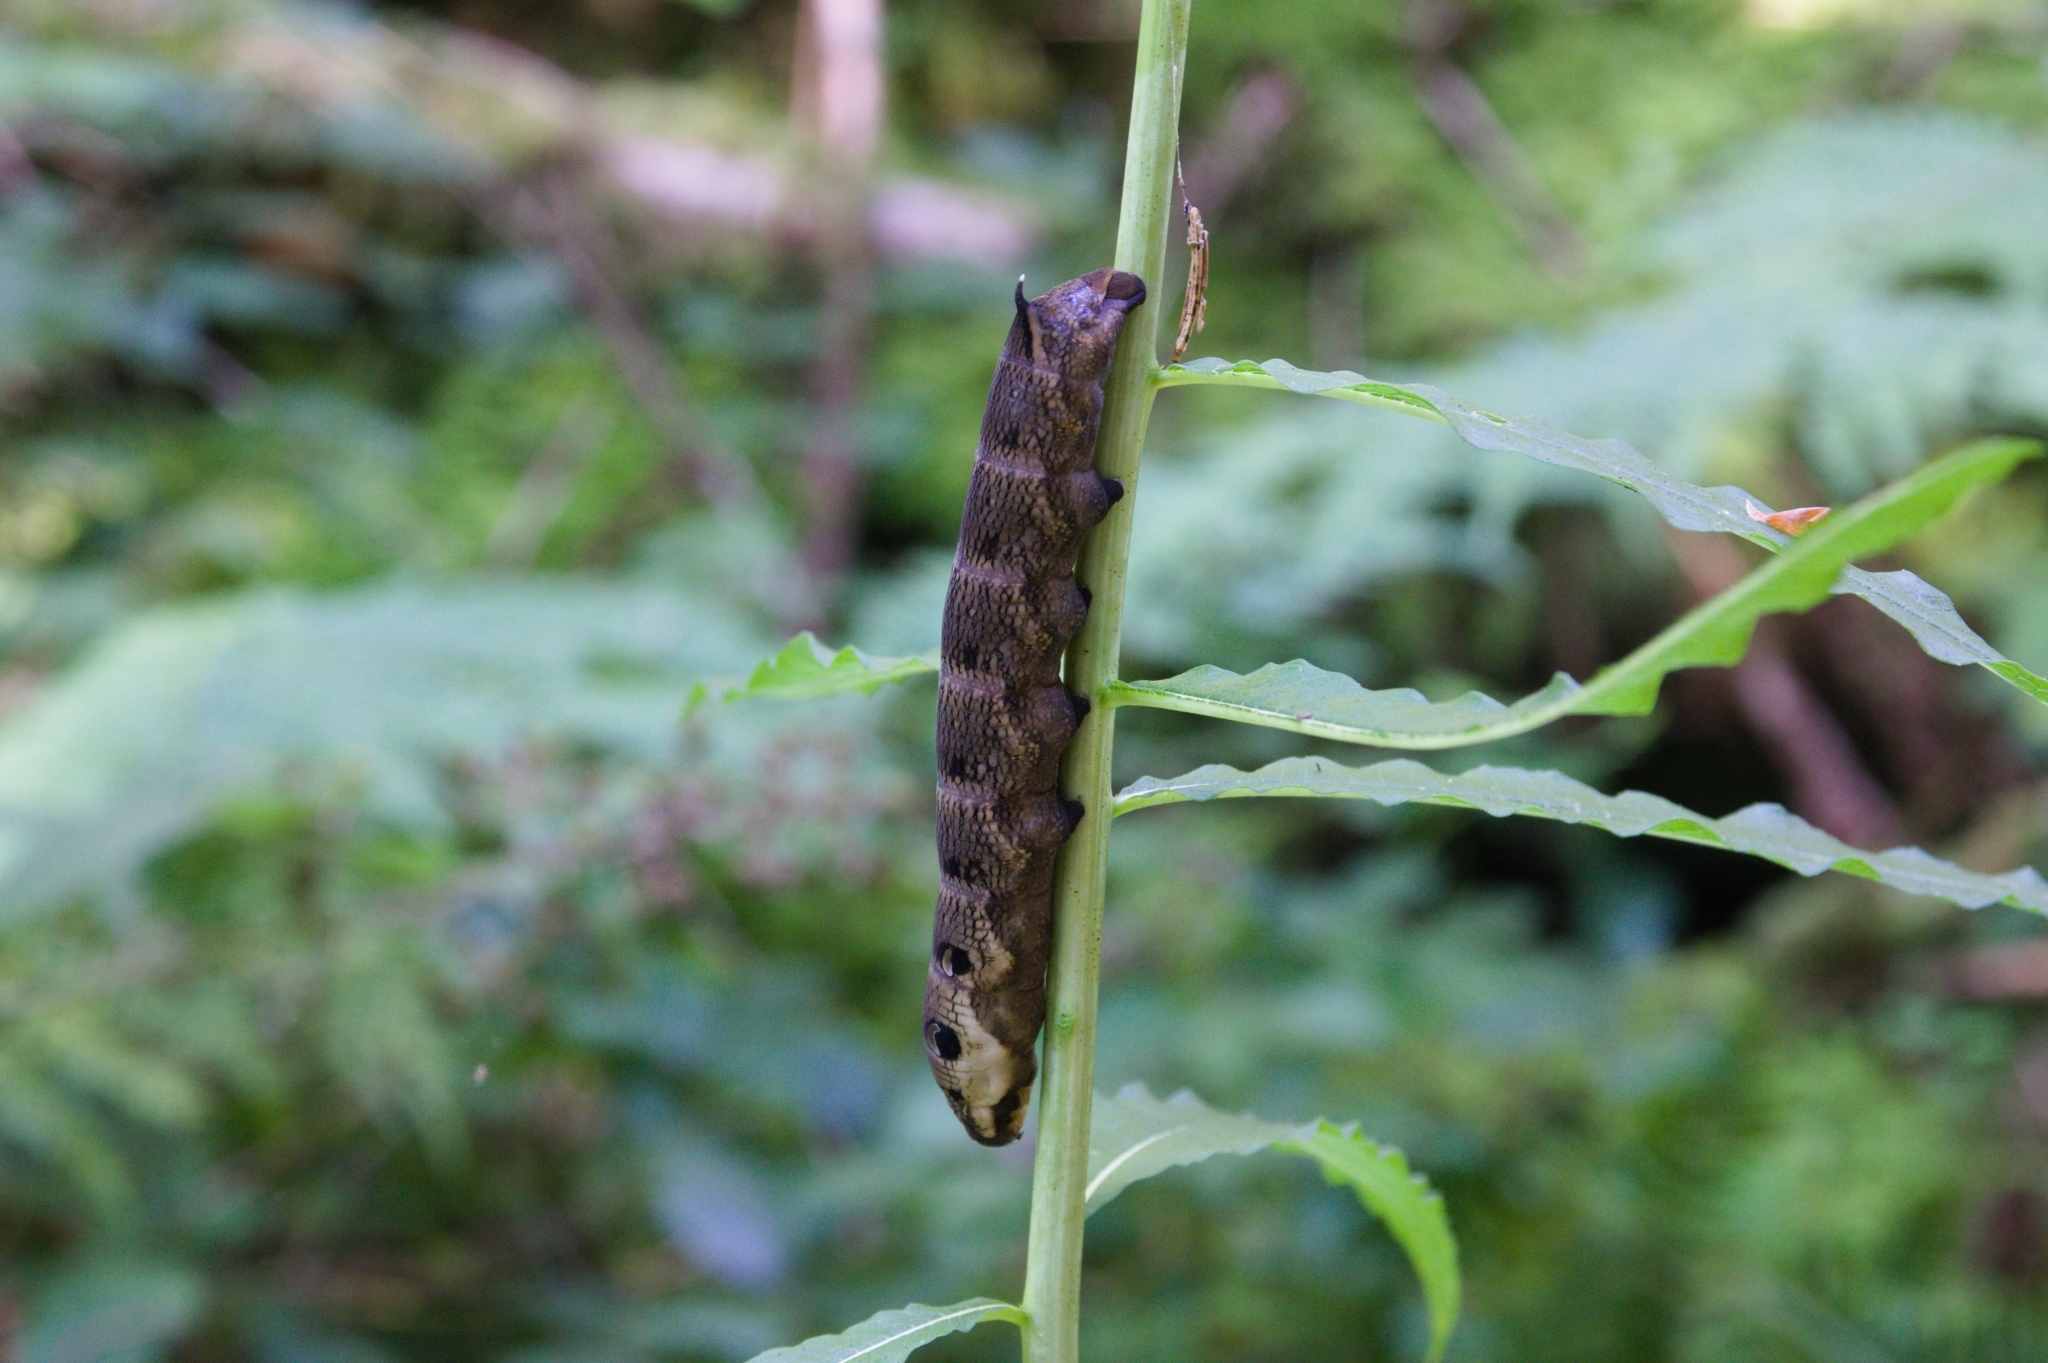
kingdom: Animalia
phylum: Arthropoda
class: Insecta
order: Lepidoptera
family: Sphingidae
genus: Deilephila
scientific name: Deilephila elpenor
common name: Elephant hawk-moth
